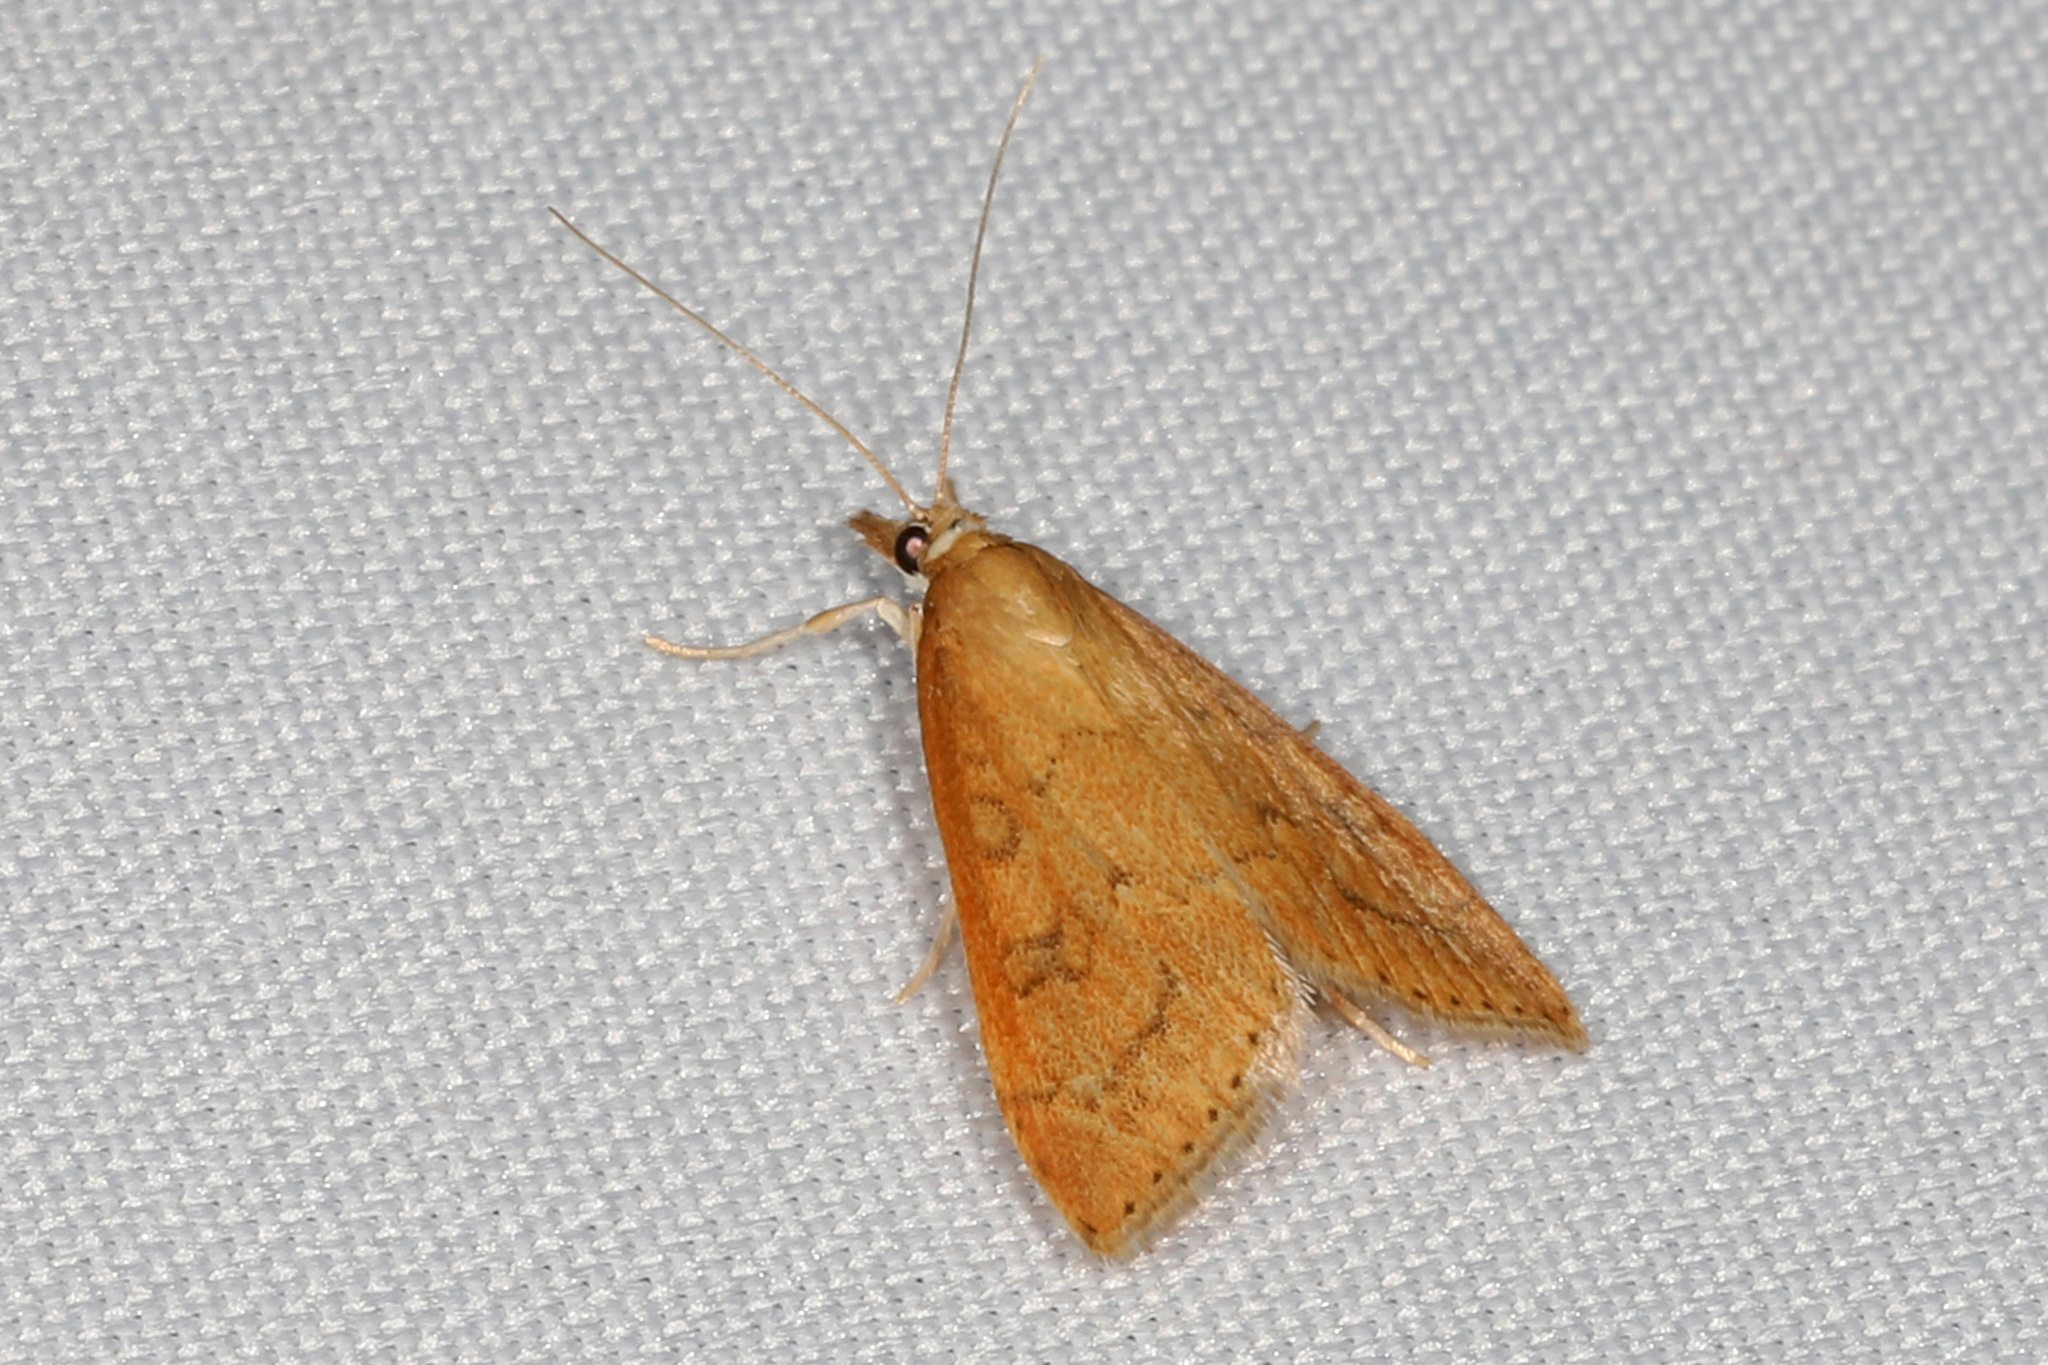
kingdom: Animalia
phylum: Arthropoda
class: Insecta
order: Lepidoptera
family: Crambidae
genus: Udea
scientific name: Udea rubigalis
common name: Celery leaftier moth
